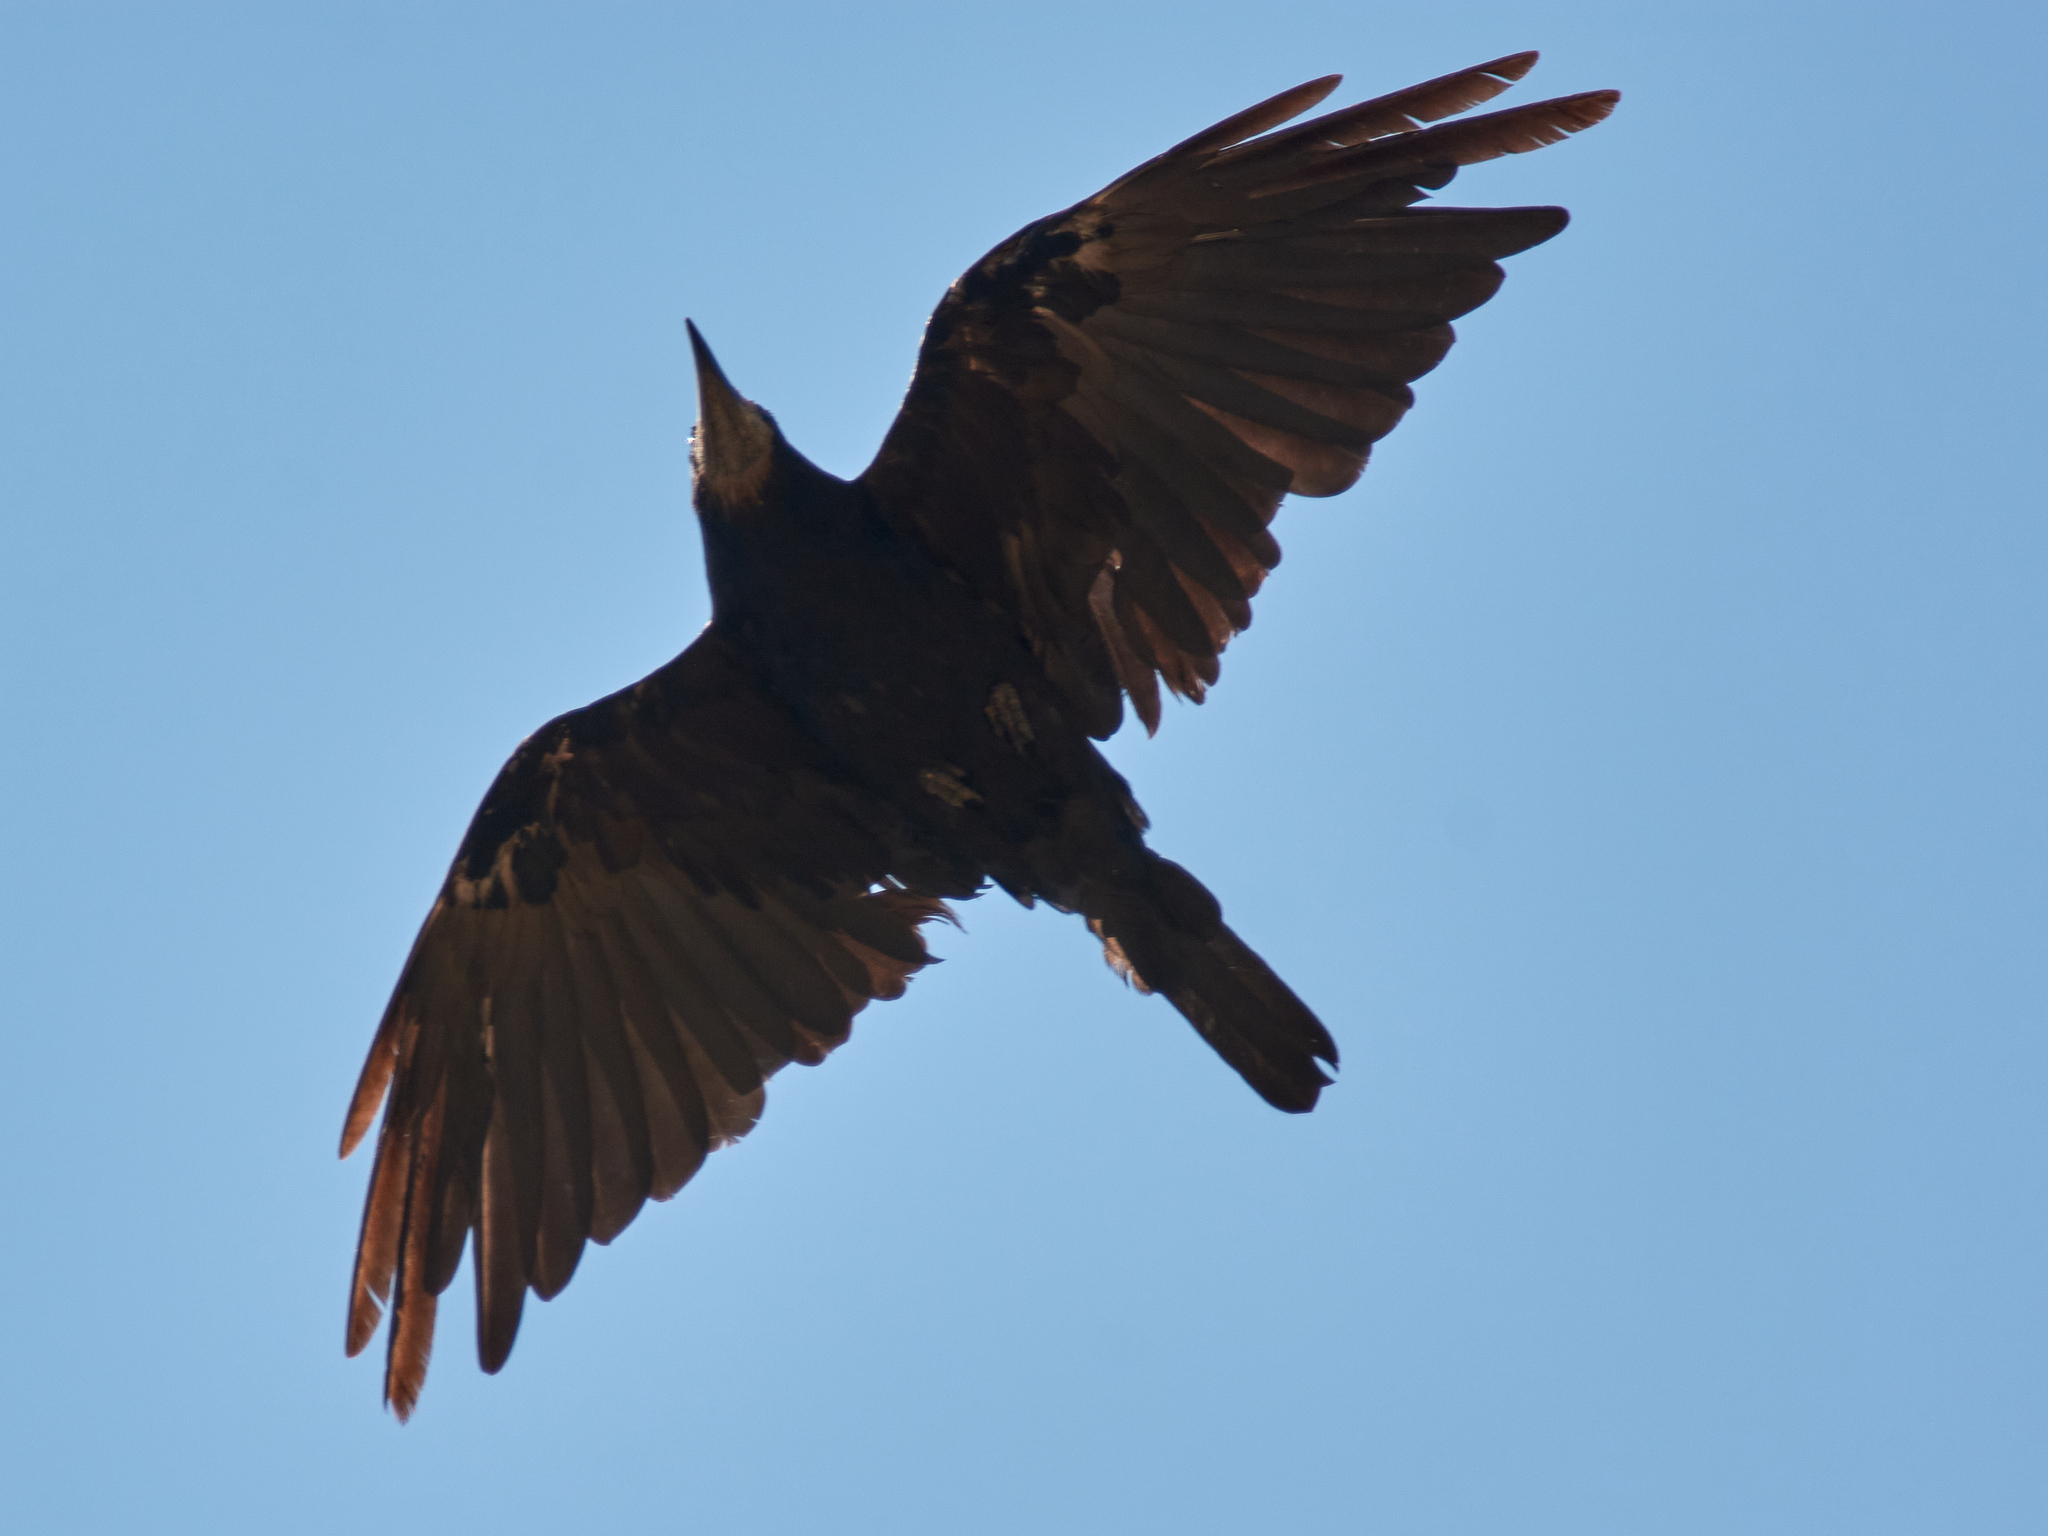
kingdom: Animalia
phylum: Chordata
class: Aves
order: Passeriformes
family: Corvidae
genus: Corvus
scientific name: Corvus frugilegus
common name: Rook
